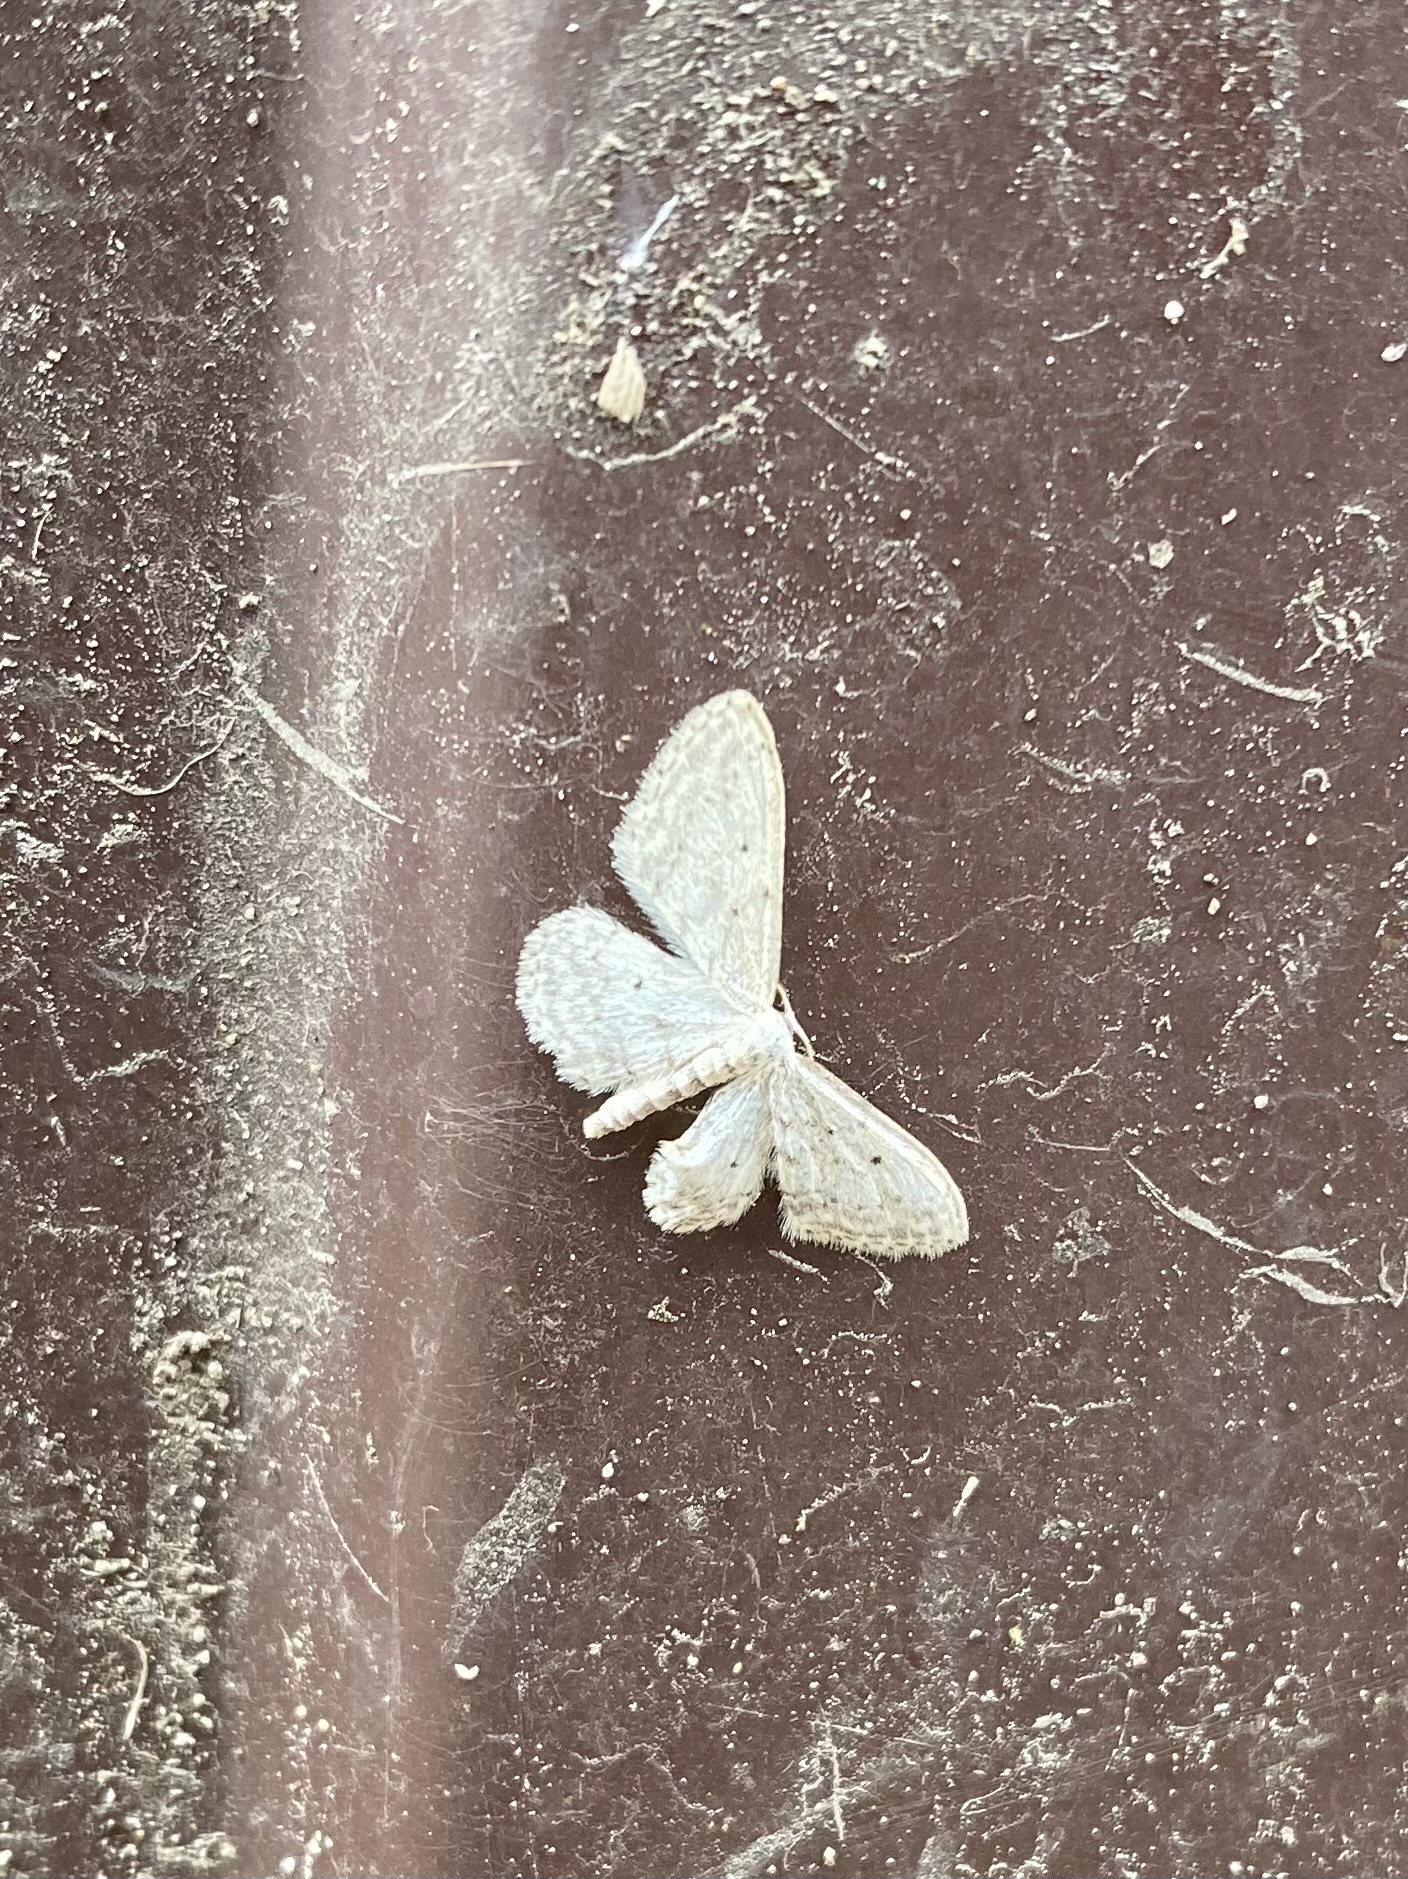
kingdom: Animalia
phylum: Arthropoda
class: Insecta
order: Lepidoptera
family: Geometridae
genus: Idaea
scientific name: Idaea seriata
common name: Small dusty wave
